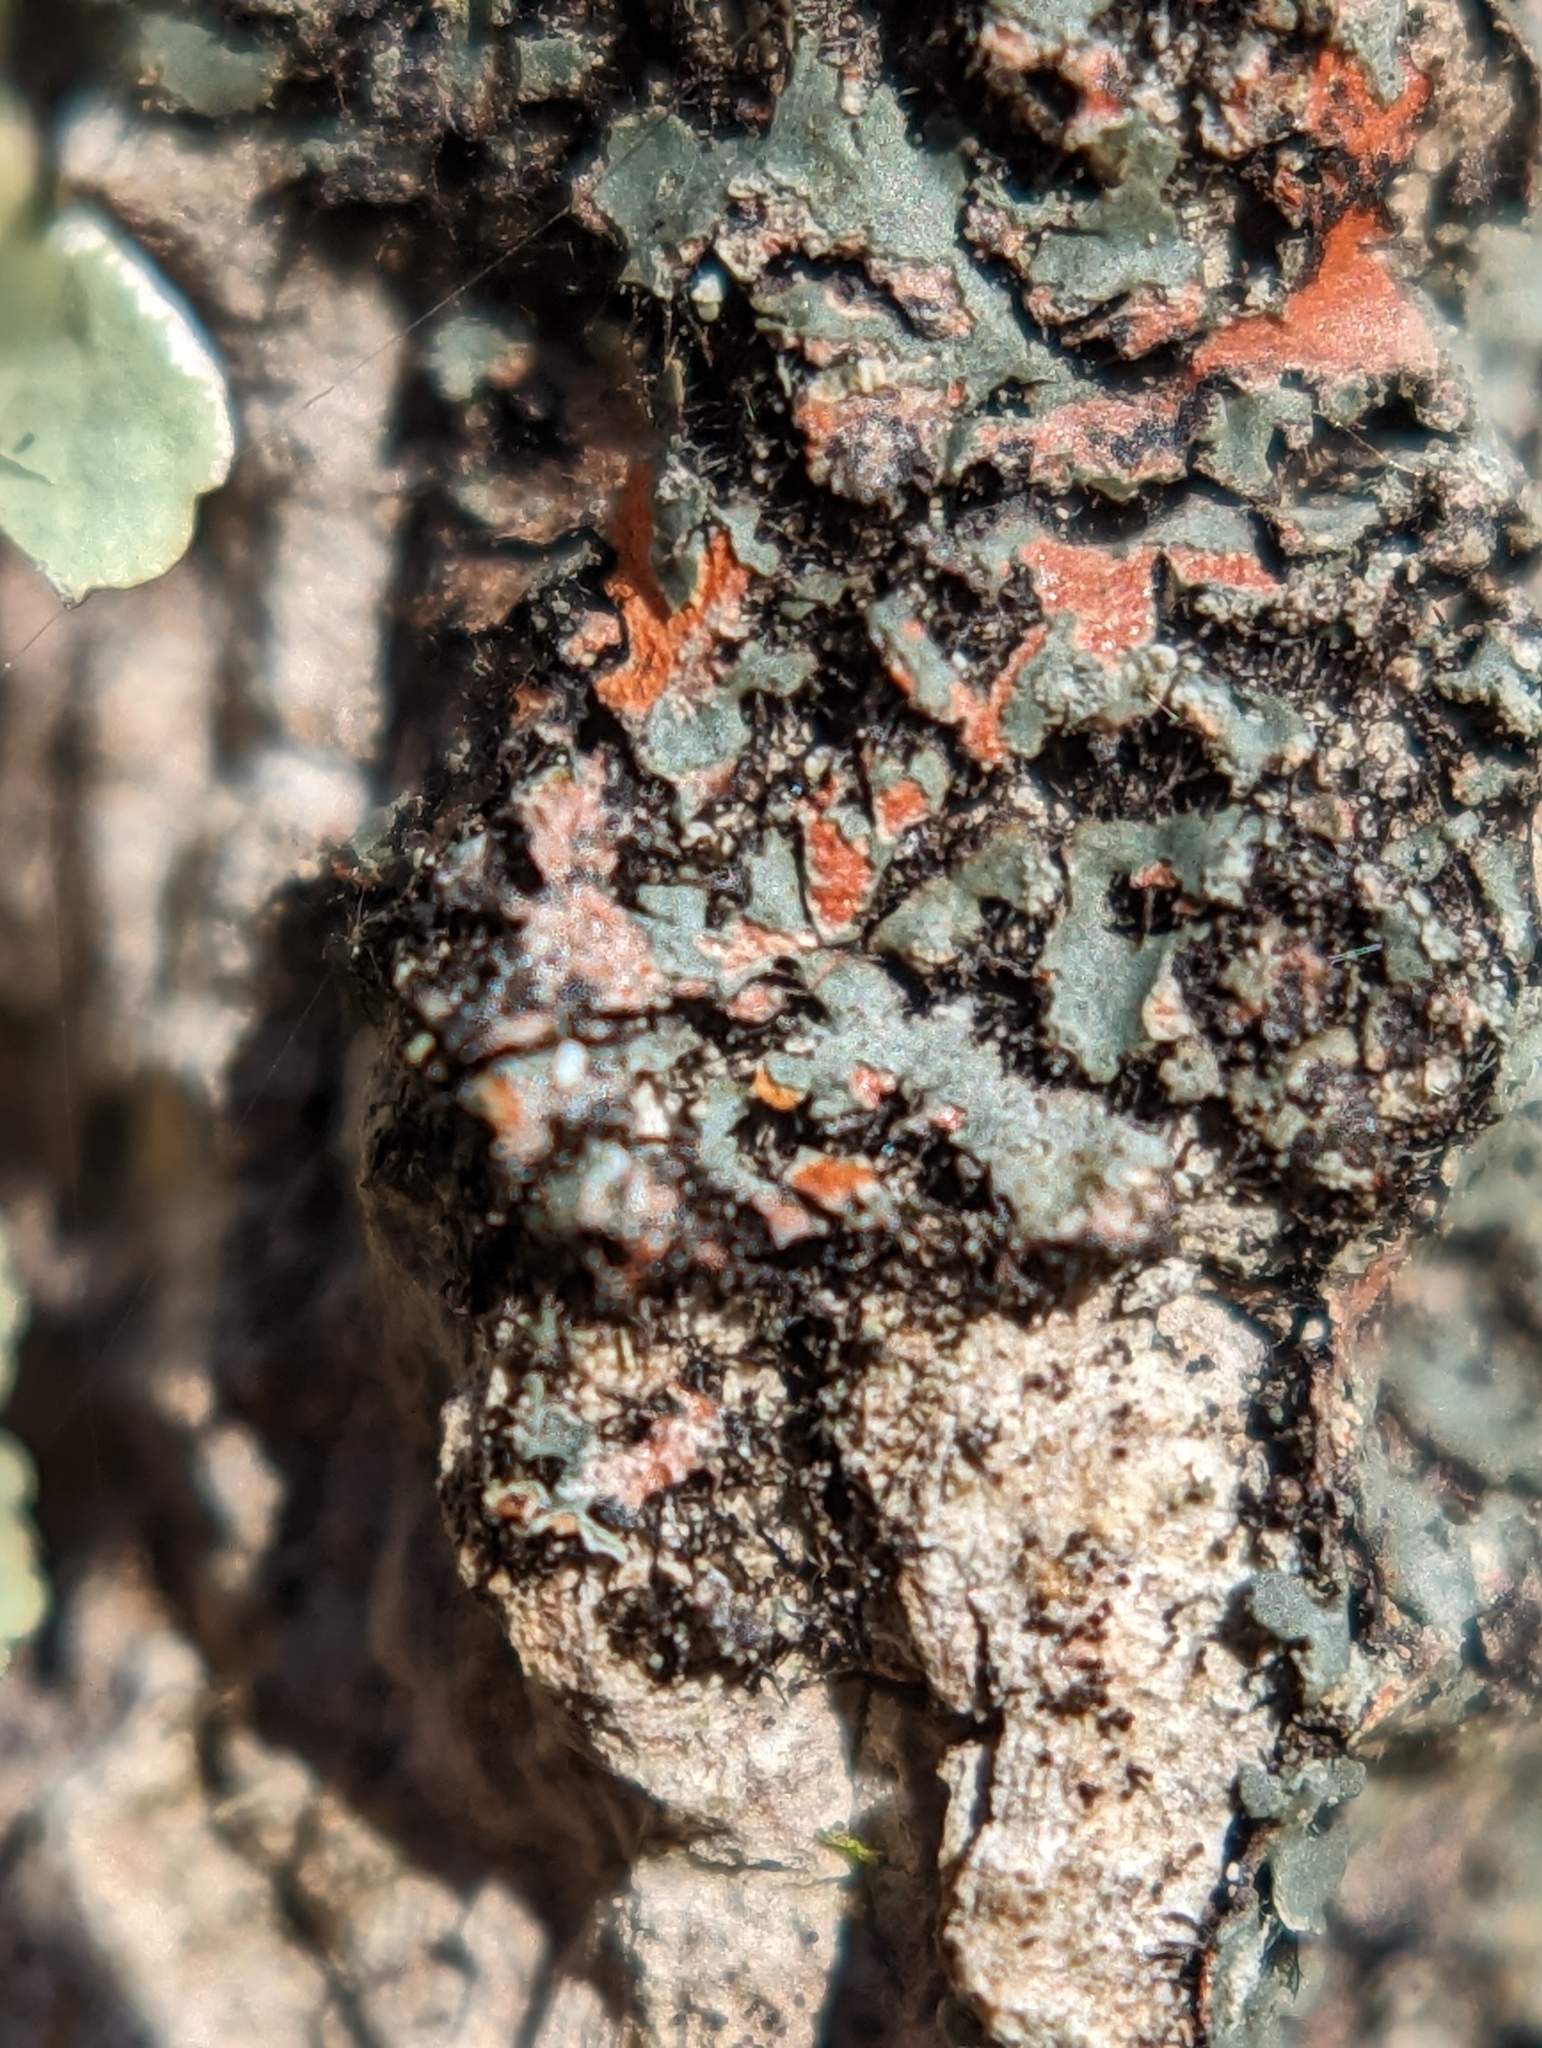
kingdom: Fungi
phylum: Ascomycota
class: Lecanoromycetes
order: Caliciales
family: Physciaceae
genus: Phaeophyscia
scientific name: Phaeophyscia rubropulchra
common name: Orange-cored shadow lichen
